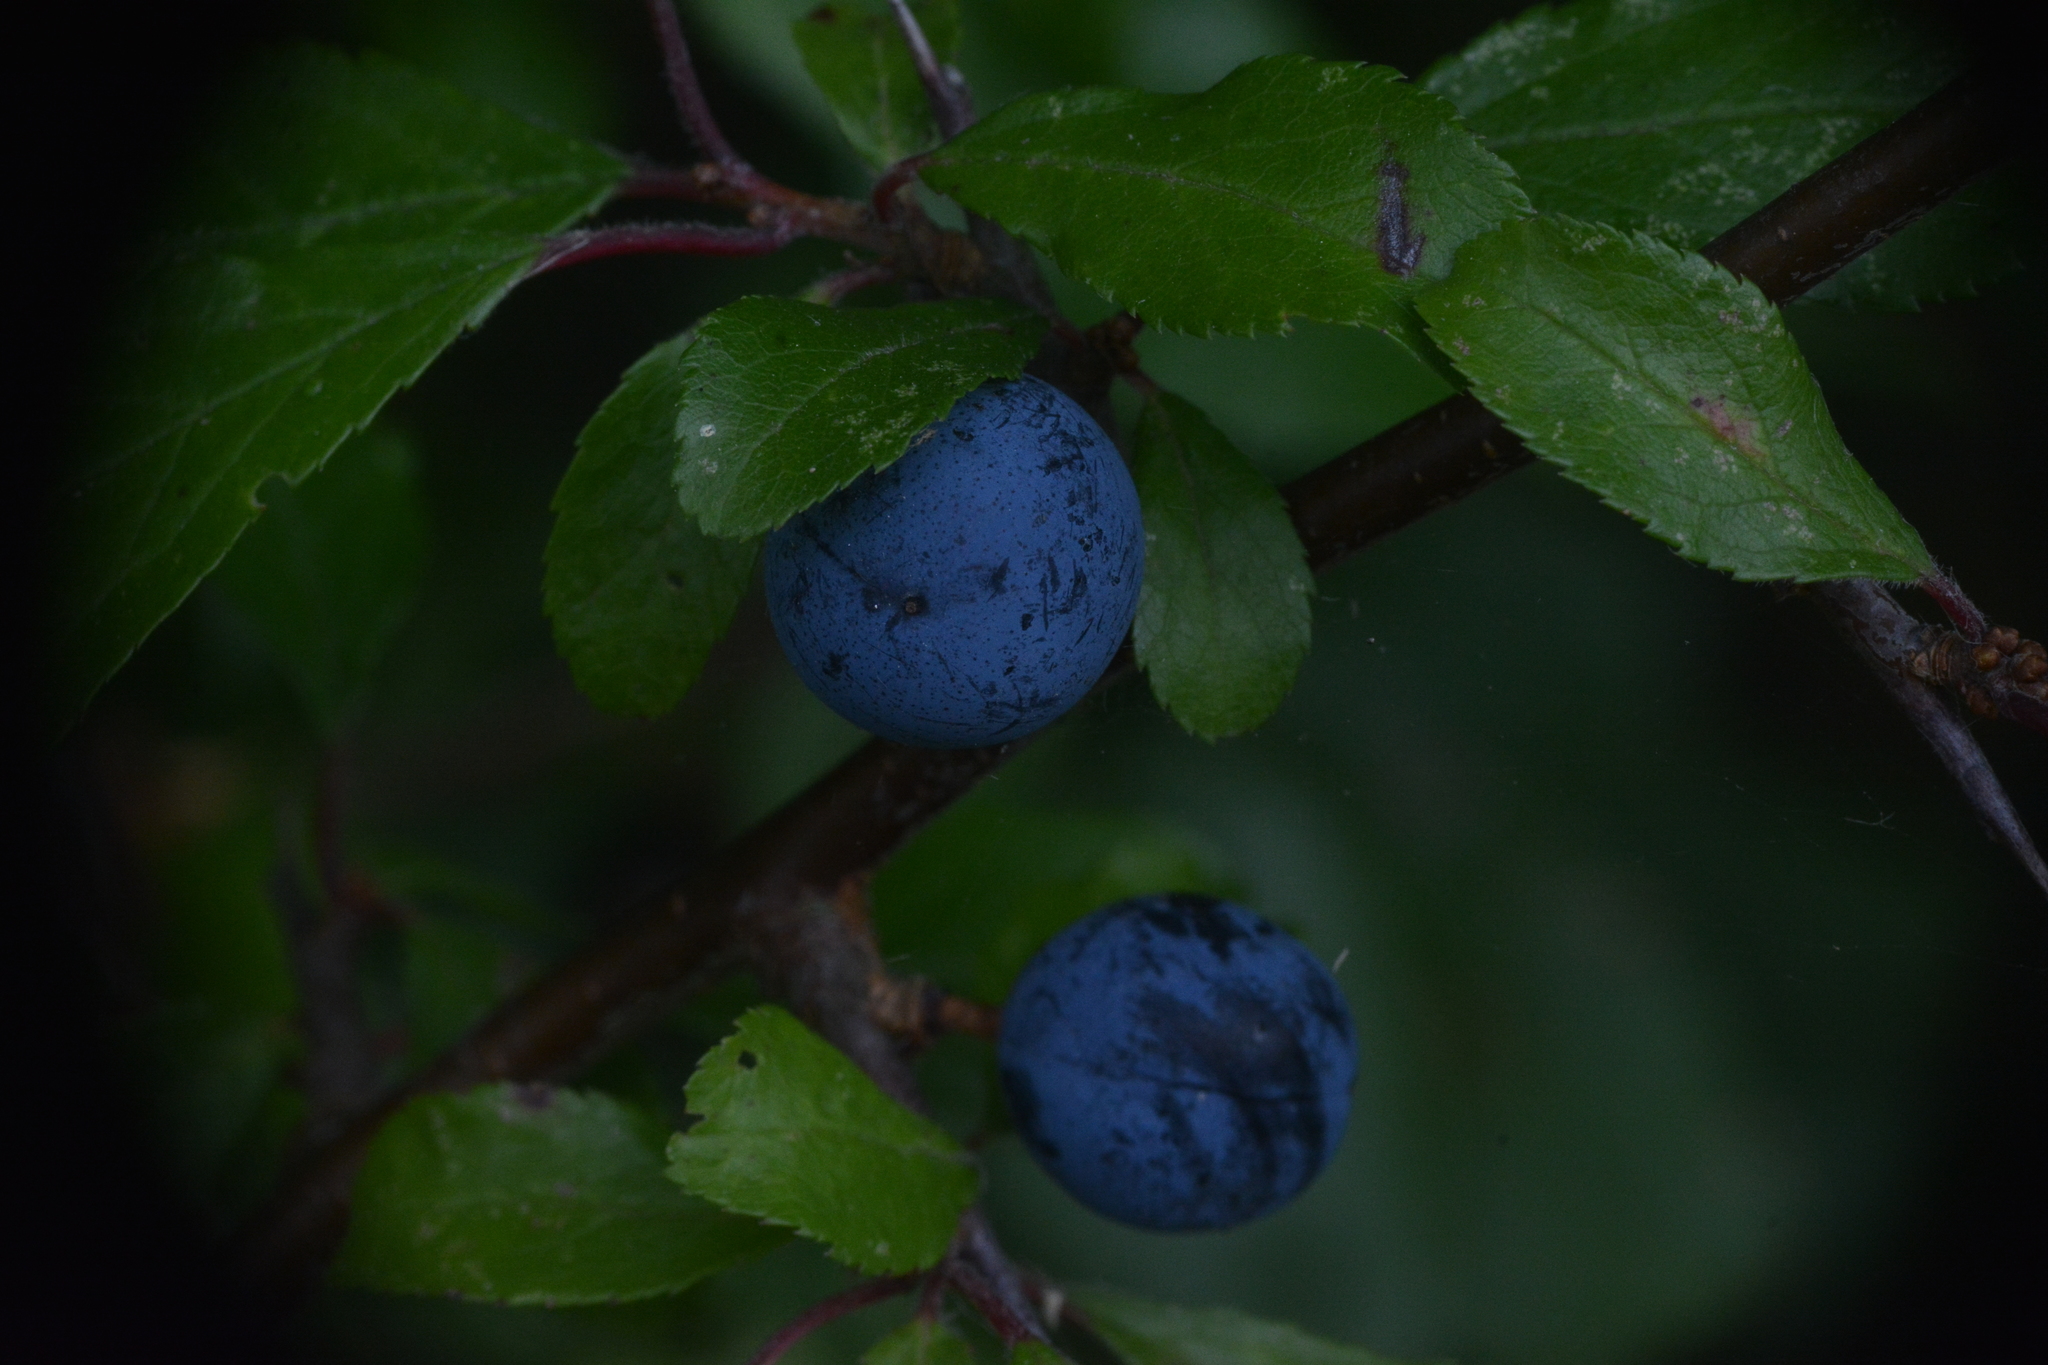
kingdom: Plantae
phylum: Tracheophyta
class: Magnoliopsida
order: Rosales
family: Rosaceae
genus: Prunus
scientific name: Prunus spinosa
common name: Blackthorn
